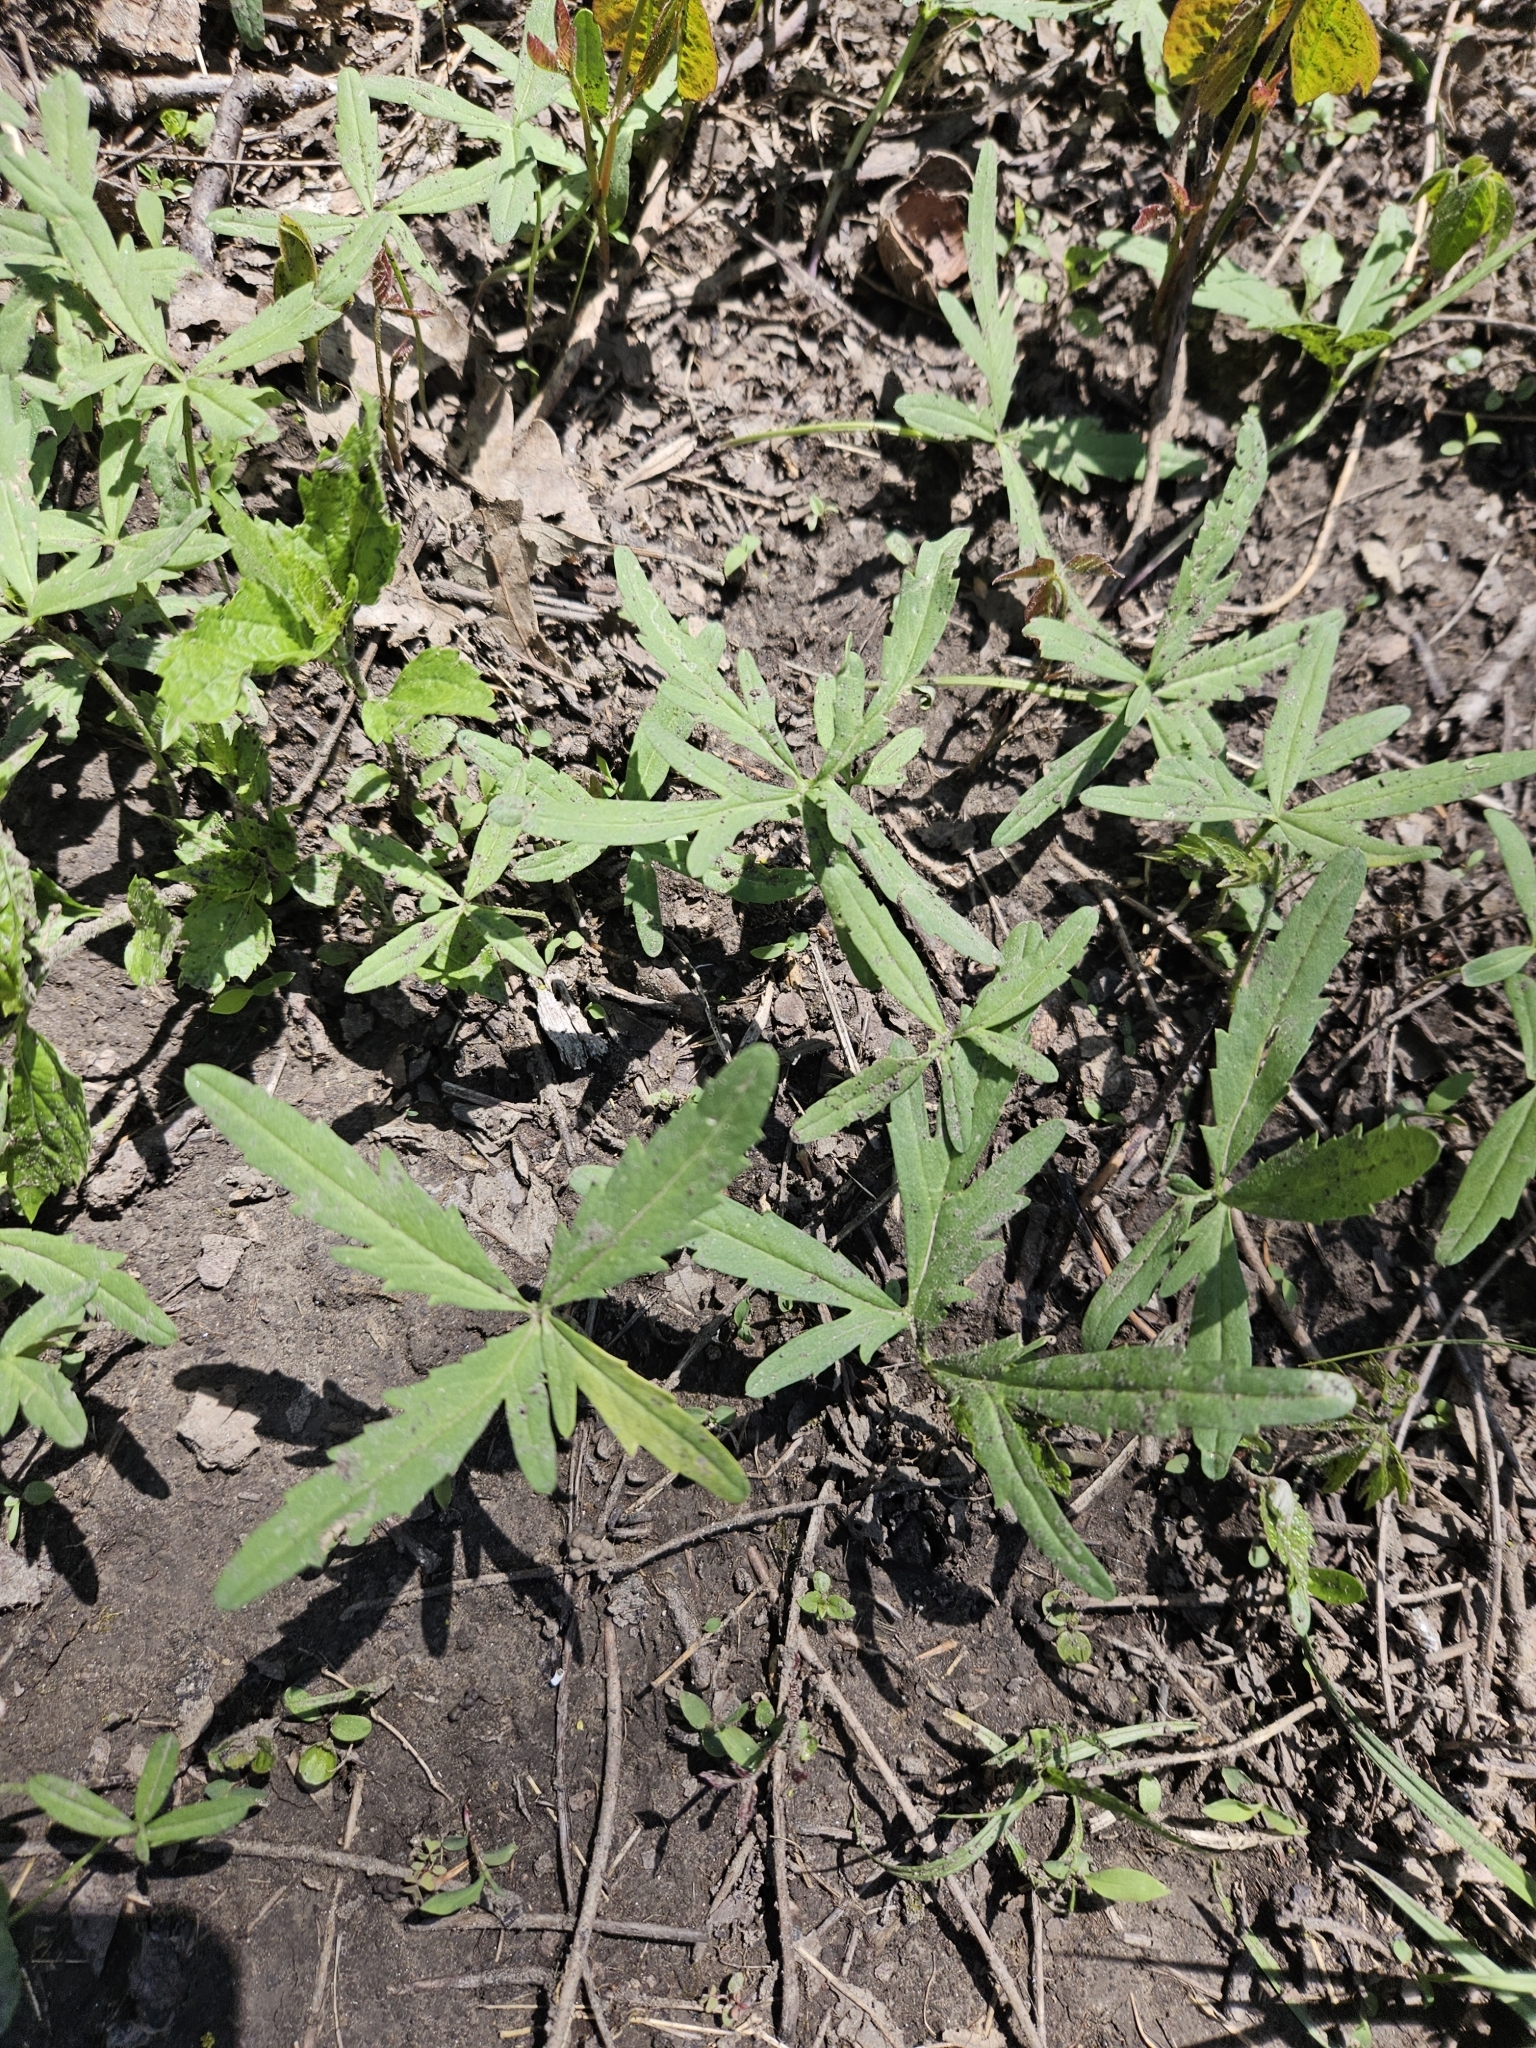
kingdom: Plantae
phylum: Tracheophyta
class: Magnoliopsida
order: Brassicales
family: Brassicaceae
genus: Cardamine
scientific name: Cardamine concatenata
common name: Cut-leaf toothcup
